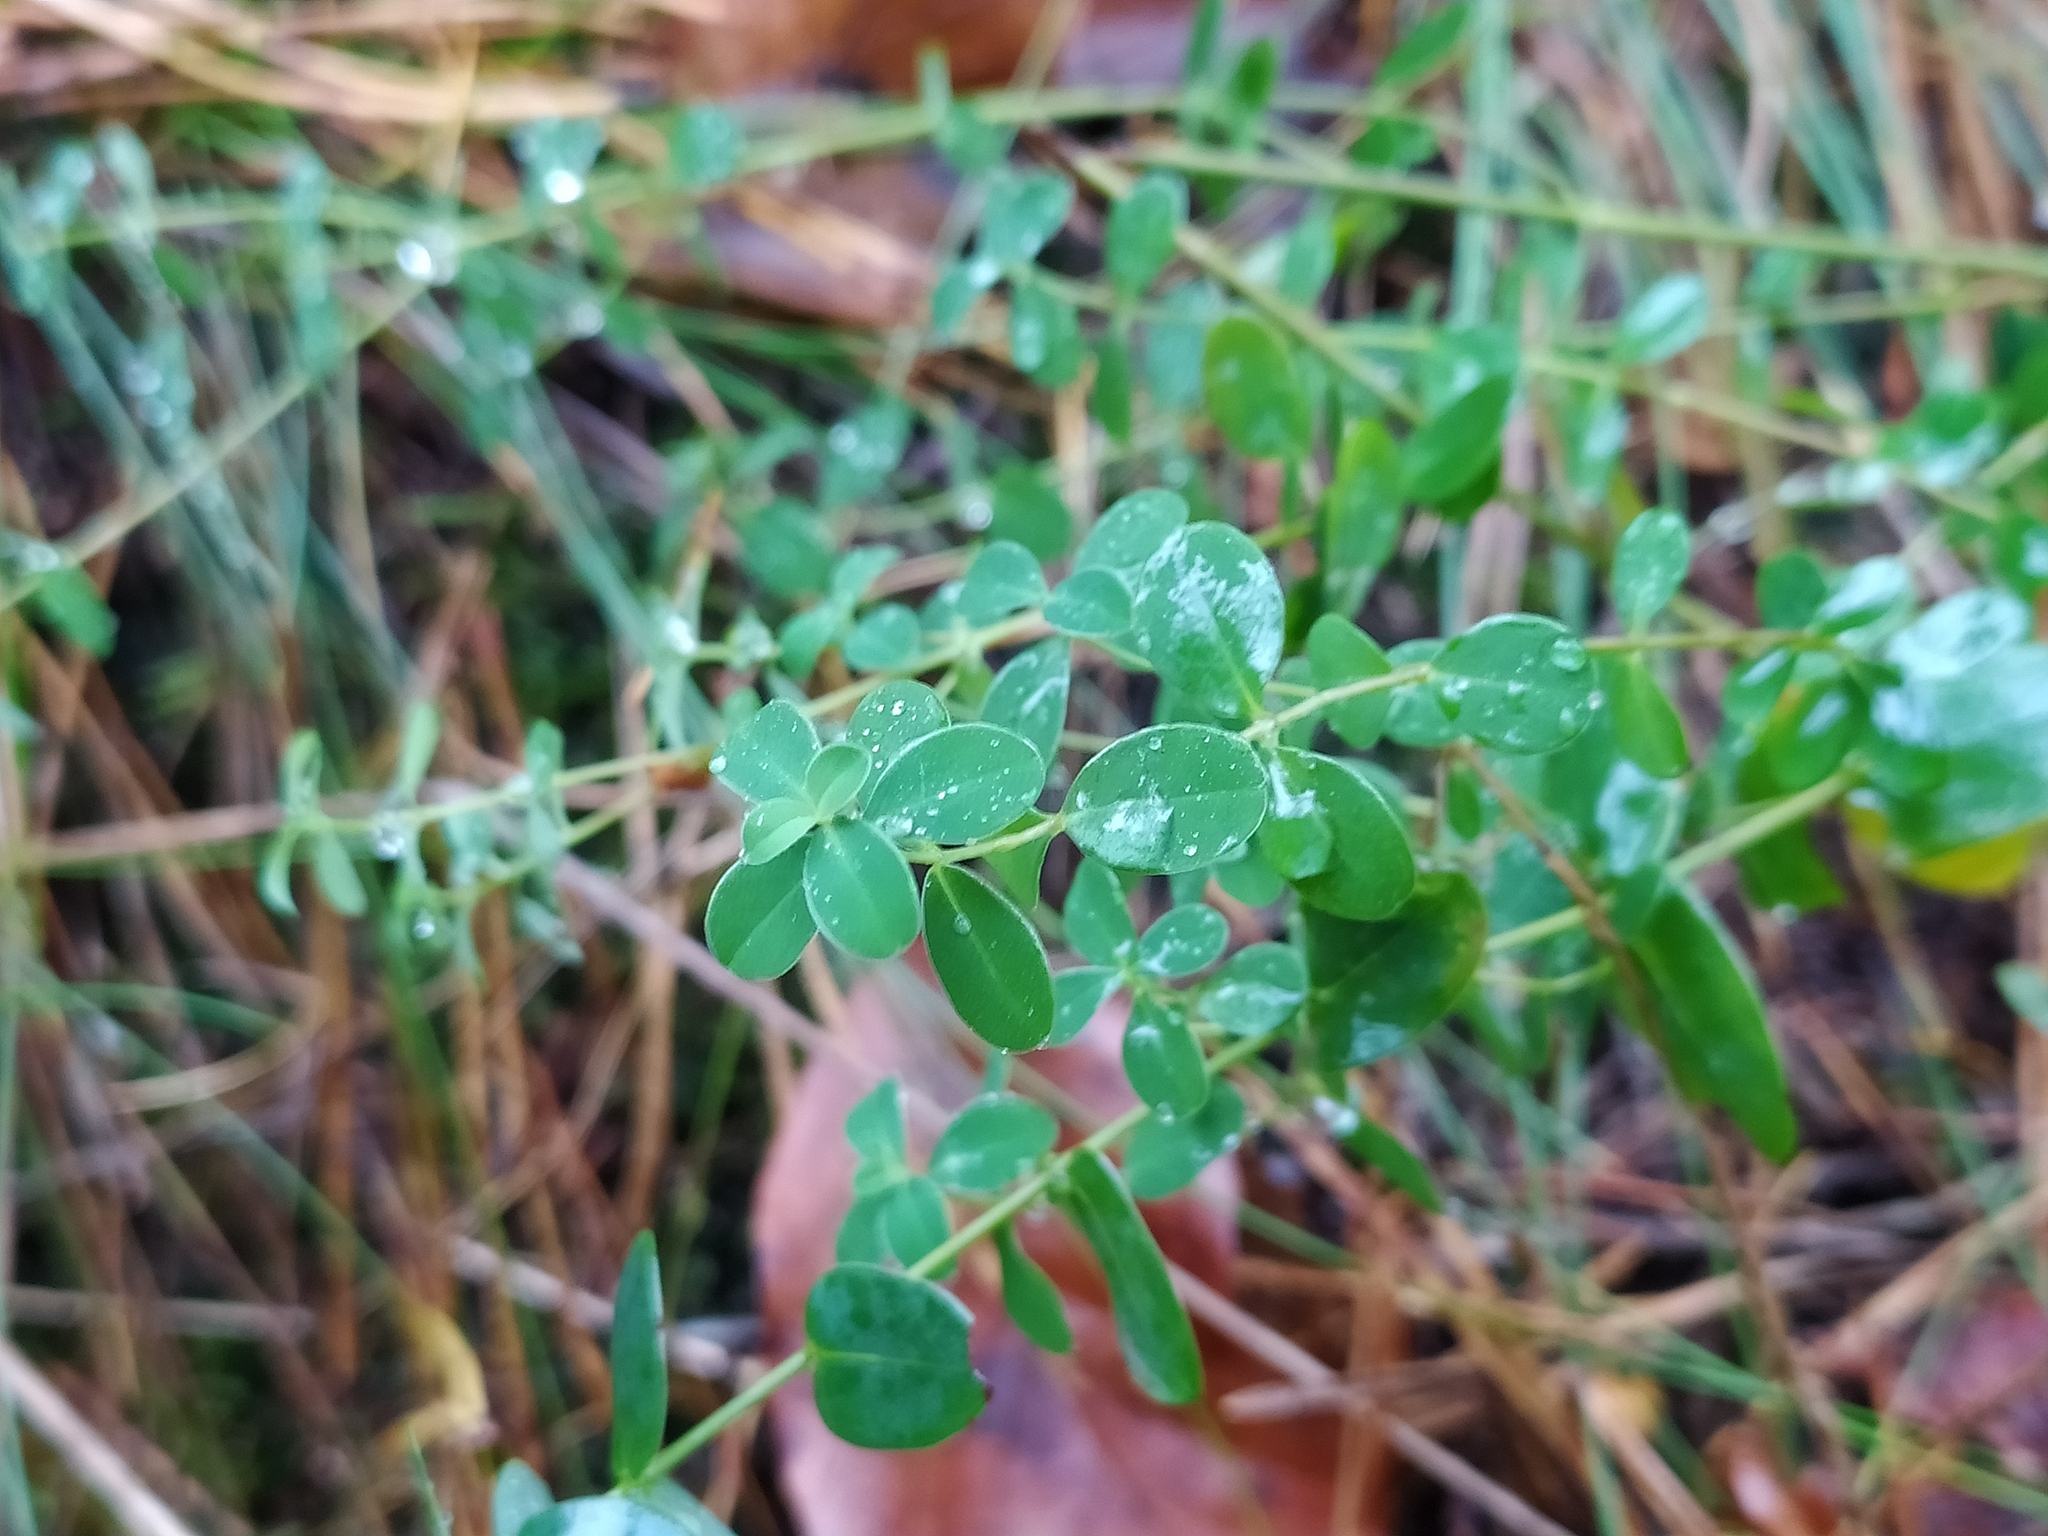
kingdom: Plantae
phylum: Tracheophyta
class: Magnoliopsida
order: Malpighiales
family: Hypericaceae
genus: Hypericum
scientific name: Hypericum pulchrum
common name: Slender st. john's-wort
